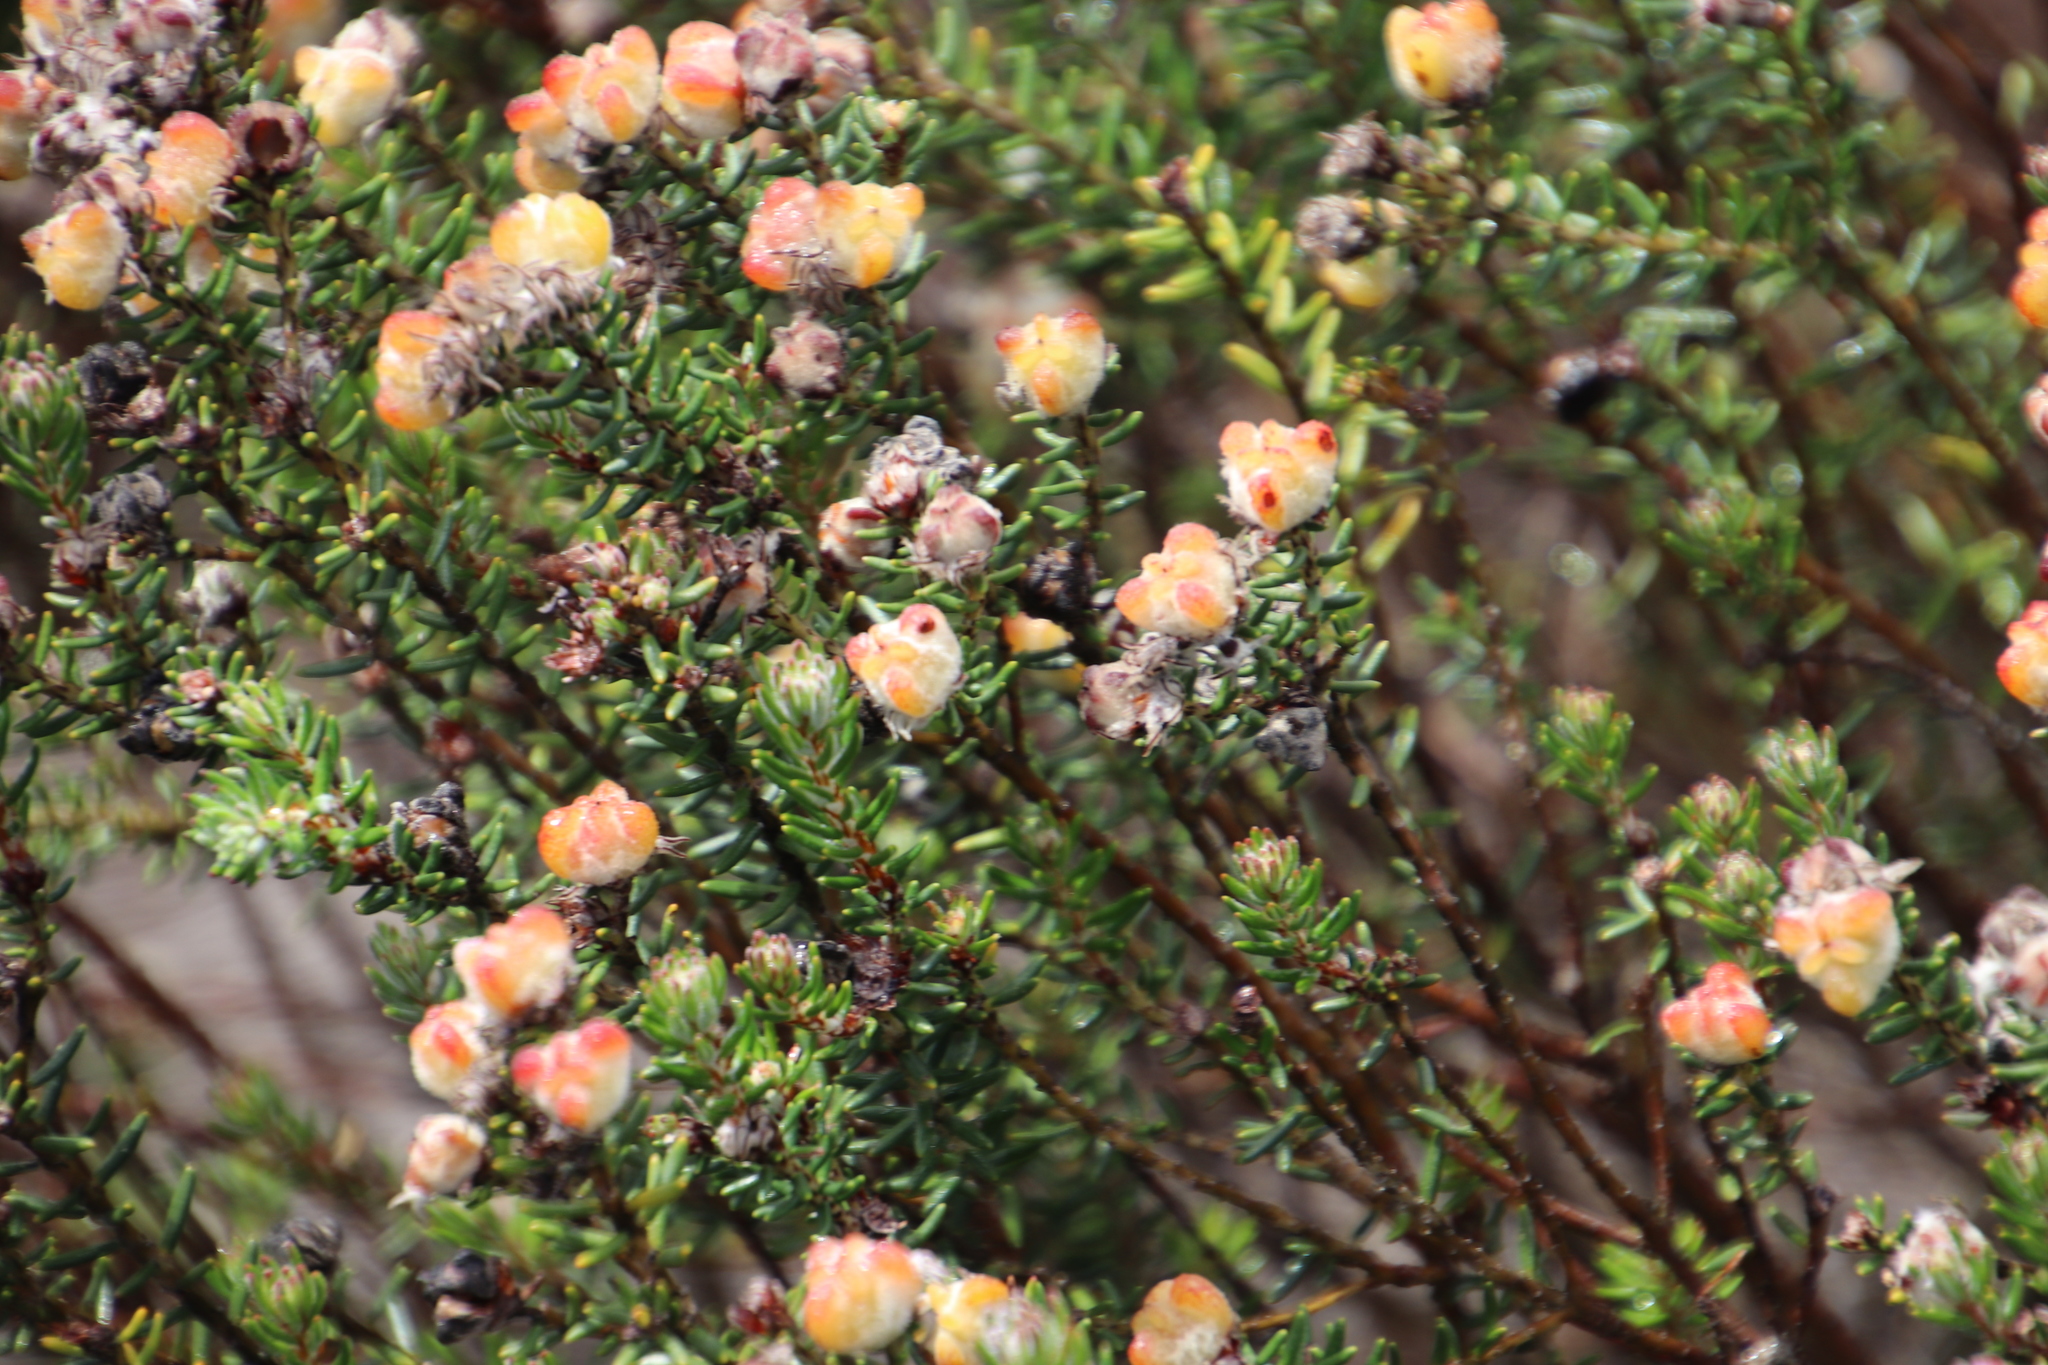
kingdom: Plantae
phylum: Tracheophyta
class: Magnoliopsida
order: Rosales
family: Rhamnaceae
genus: Trichocephalus
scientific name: Trichocephalus stipularis
